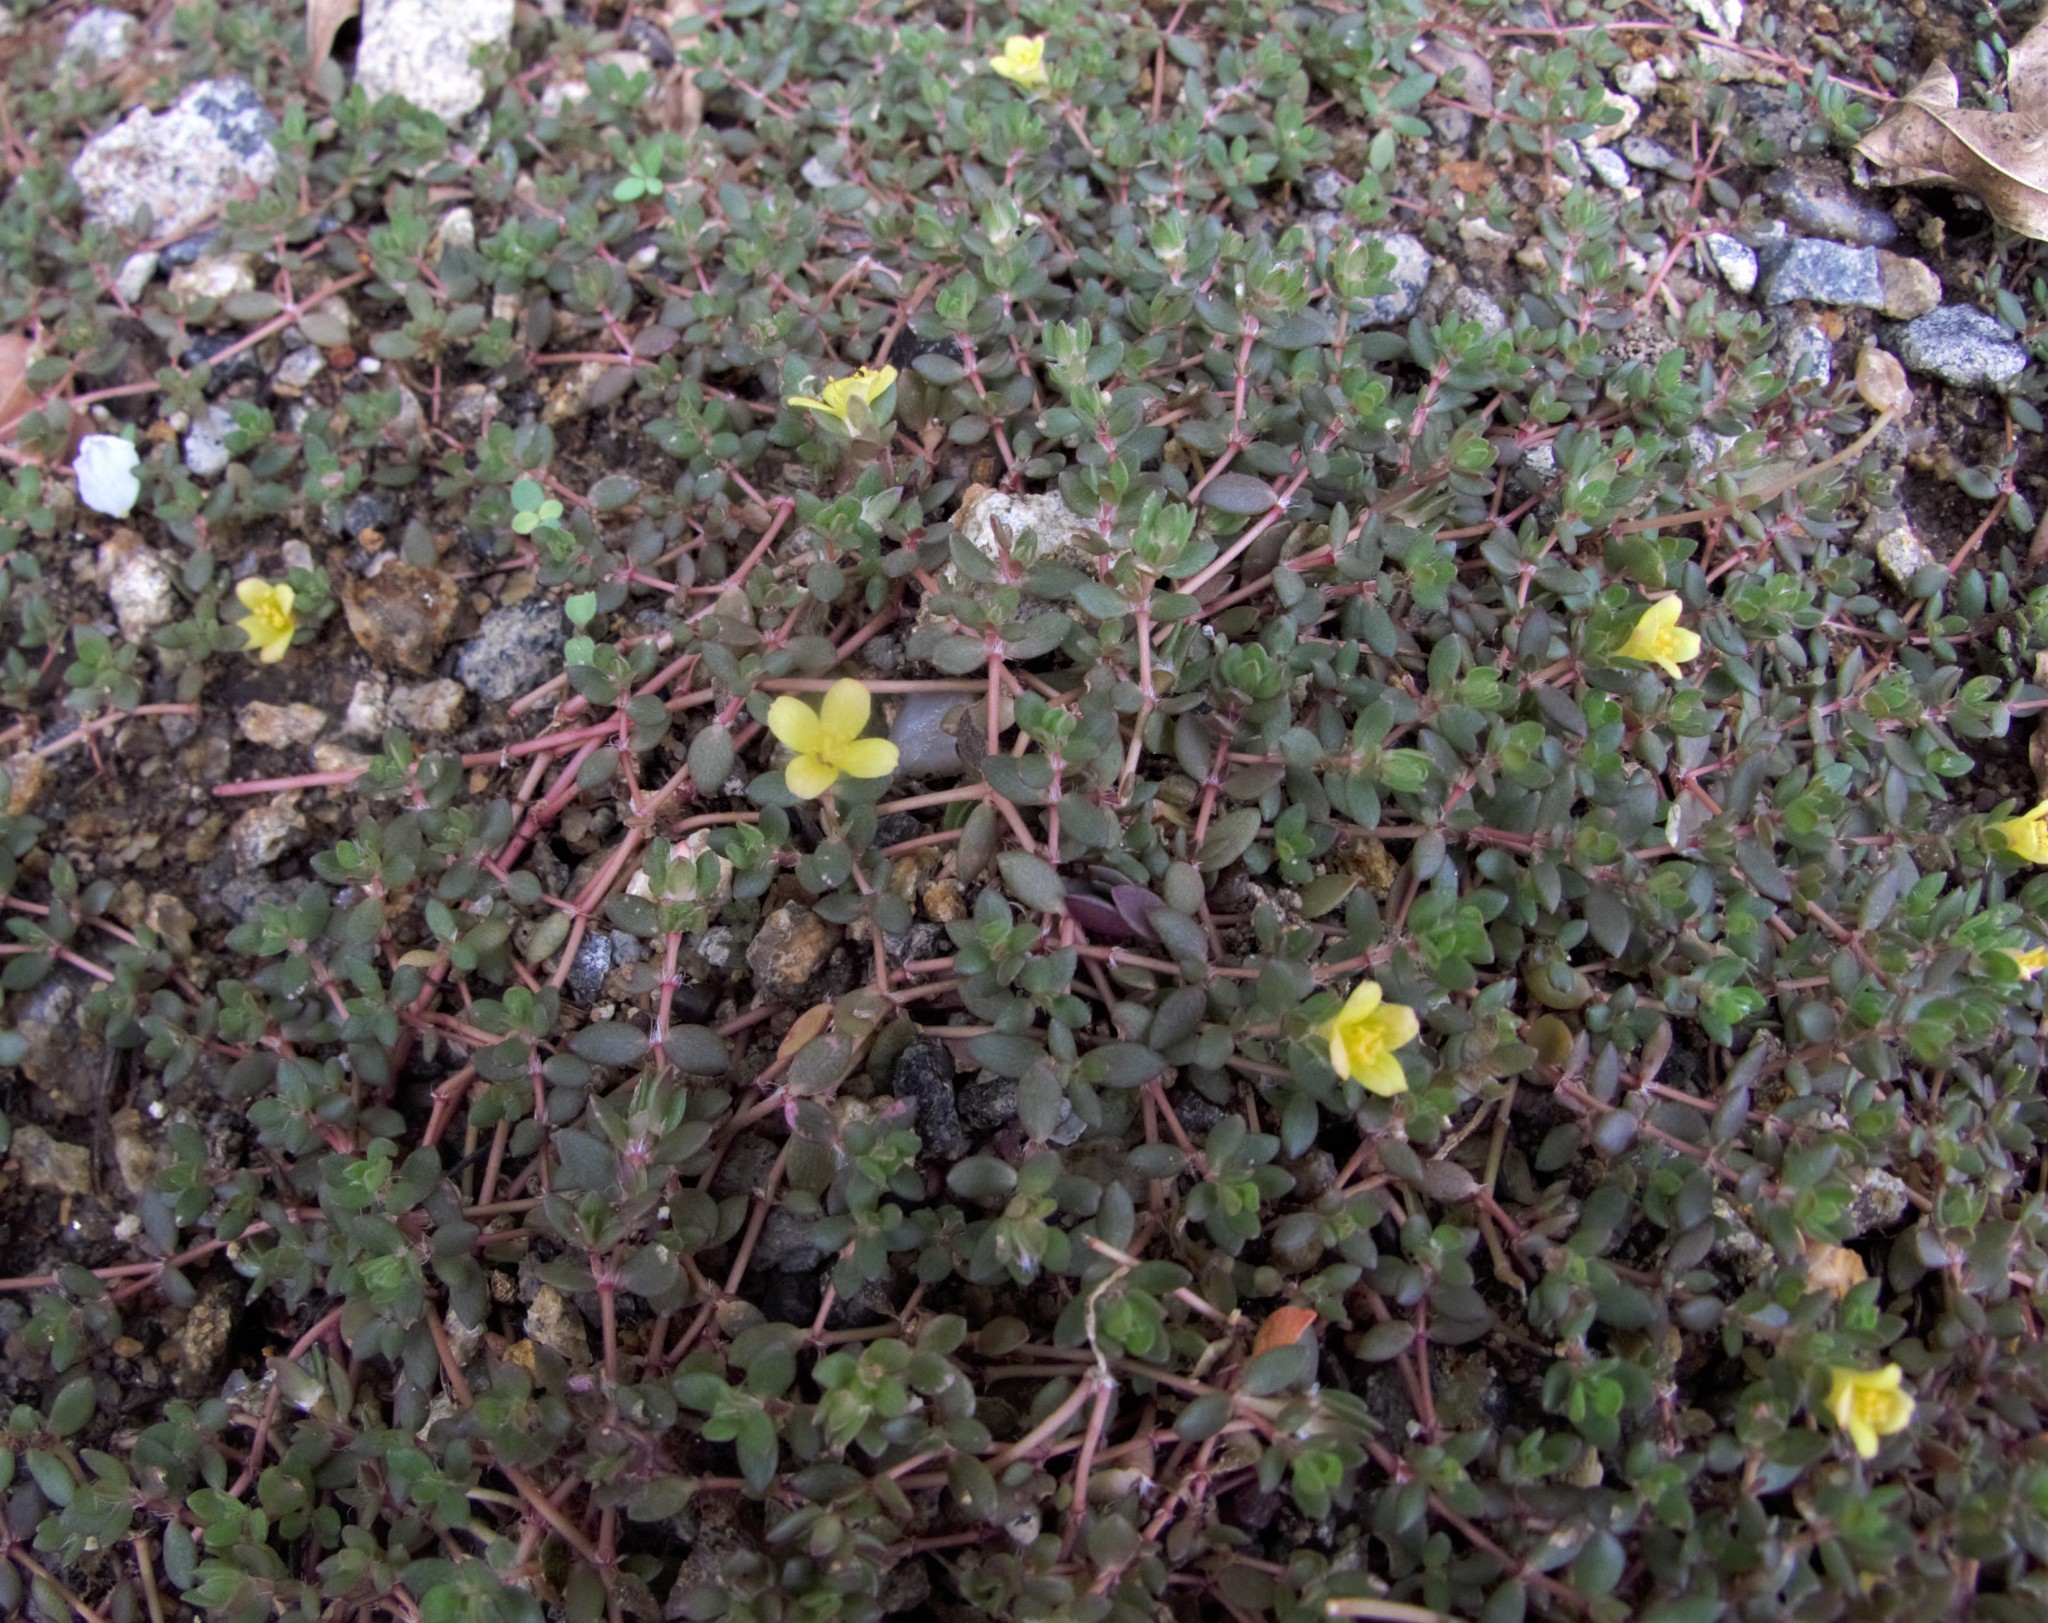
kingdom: Plantae
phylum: Tracheophyta
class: Magnoliopsida
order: Caryophyllales
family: Portulacaceae
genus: Portulaca
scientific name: Portulaca quadrifida
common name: Chickenweed
